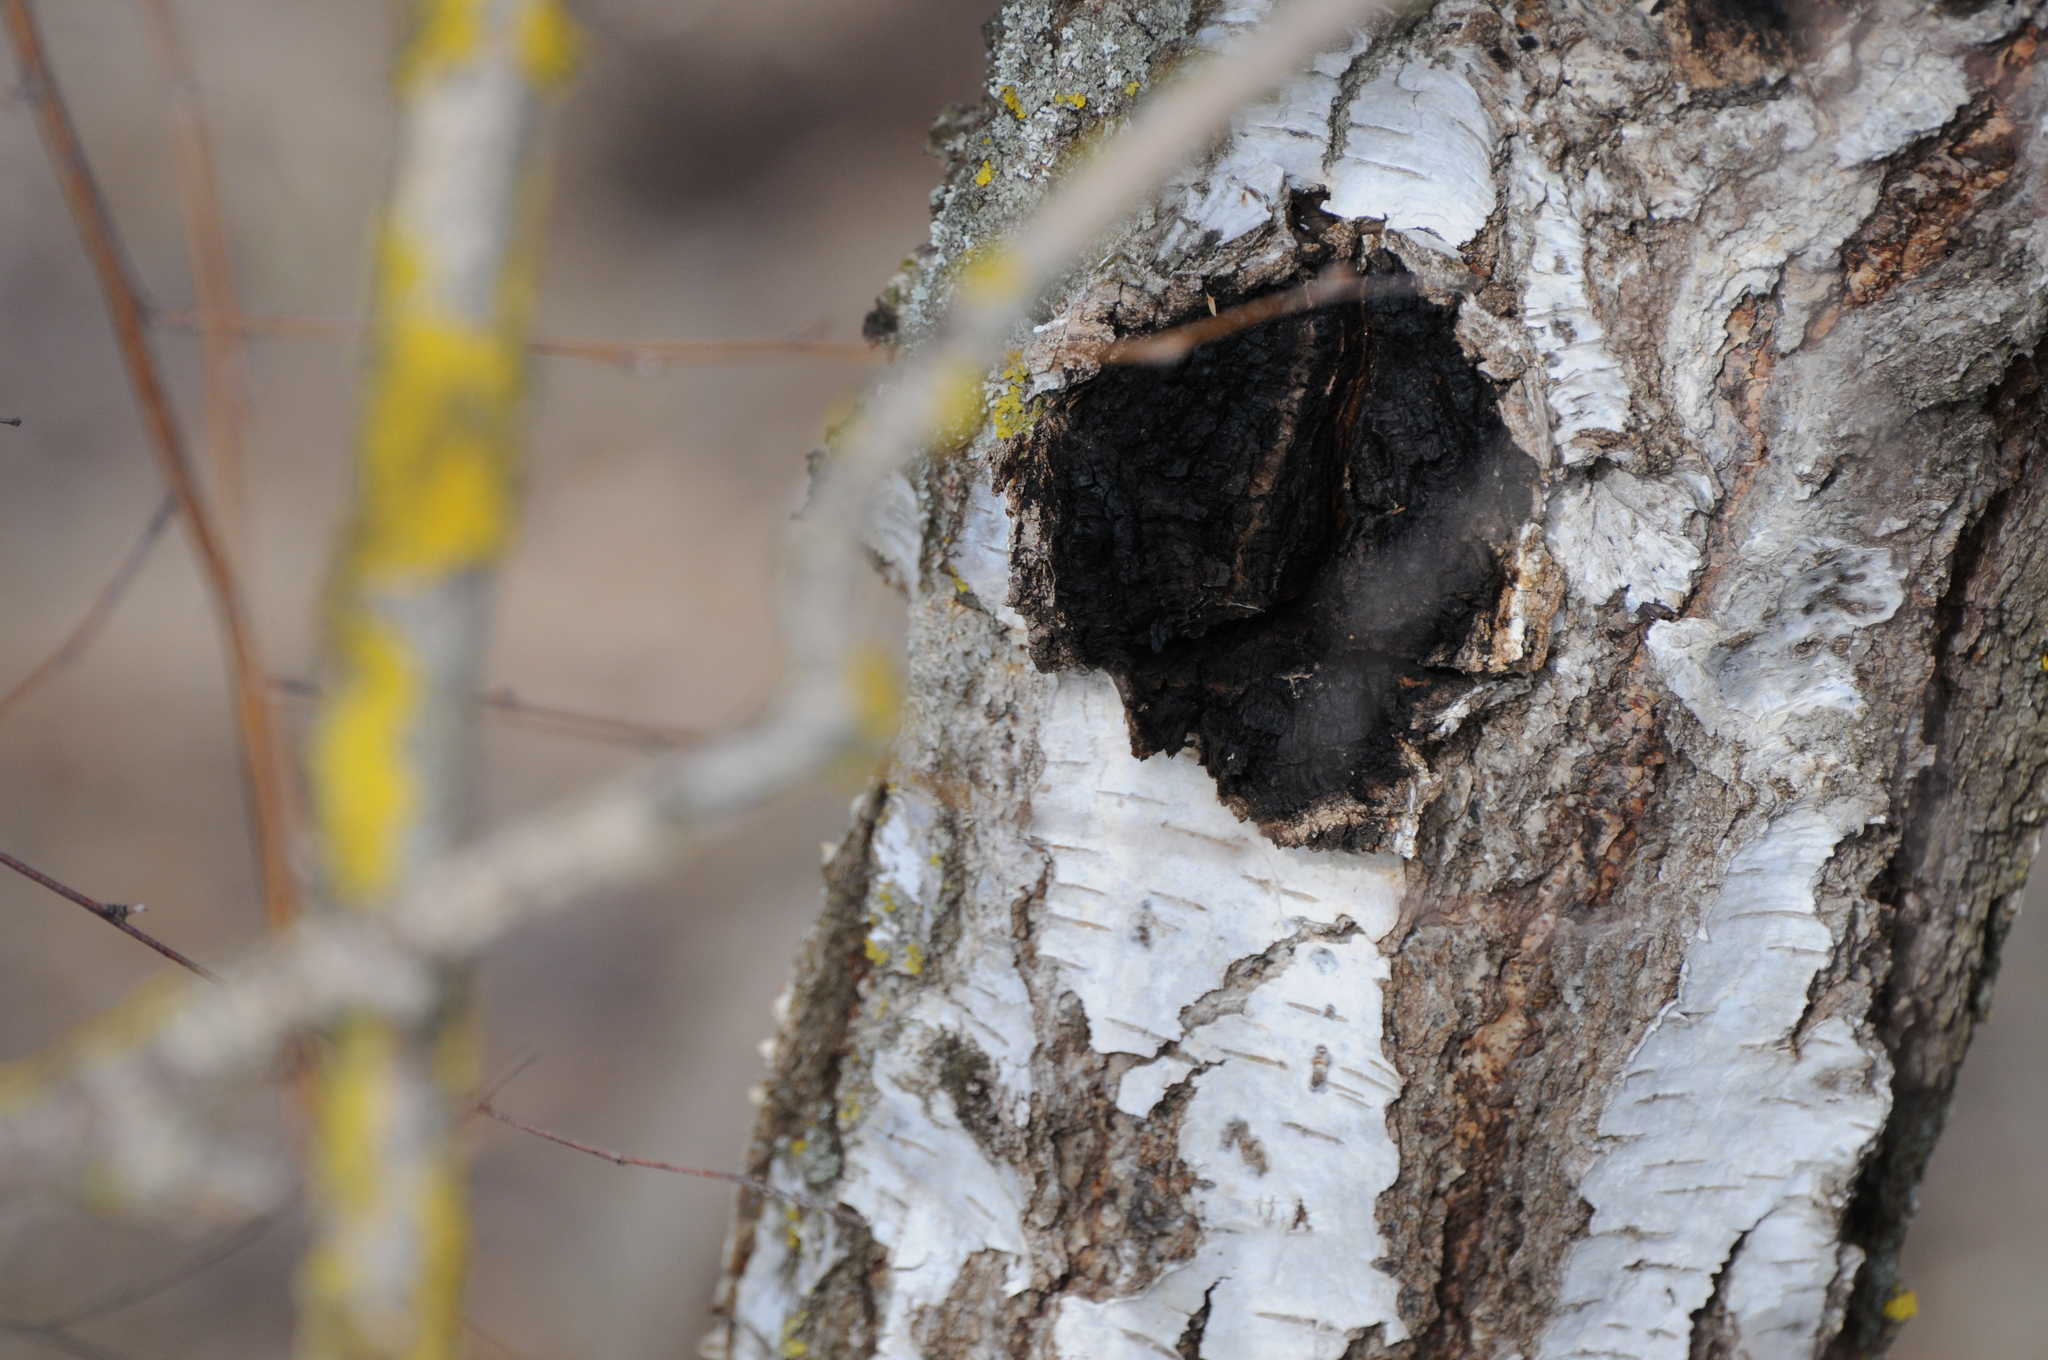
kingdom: Fungi
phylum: Basidiomycota
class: Agaricomycetes
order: Hymenochaetales
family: Hymenochaetaceae
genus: Inonotus
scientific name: Inonotus obliquus
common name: Chaga
